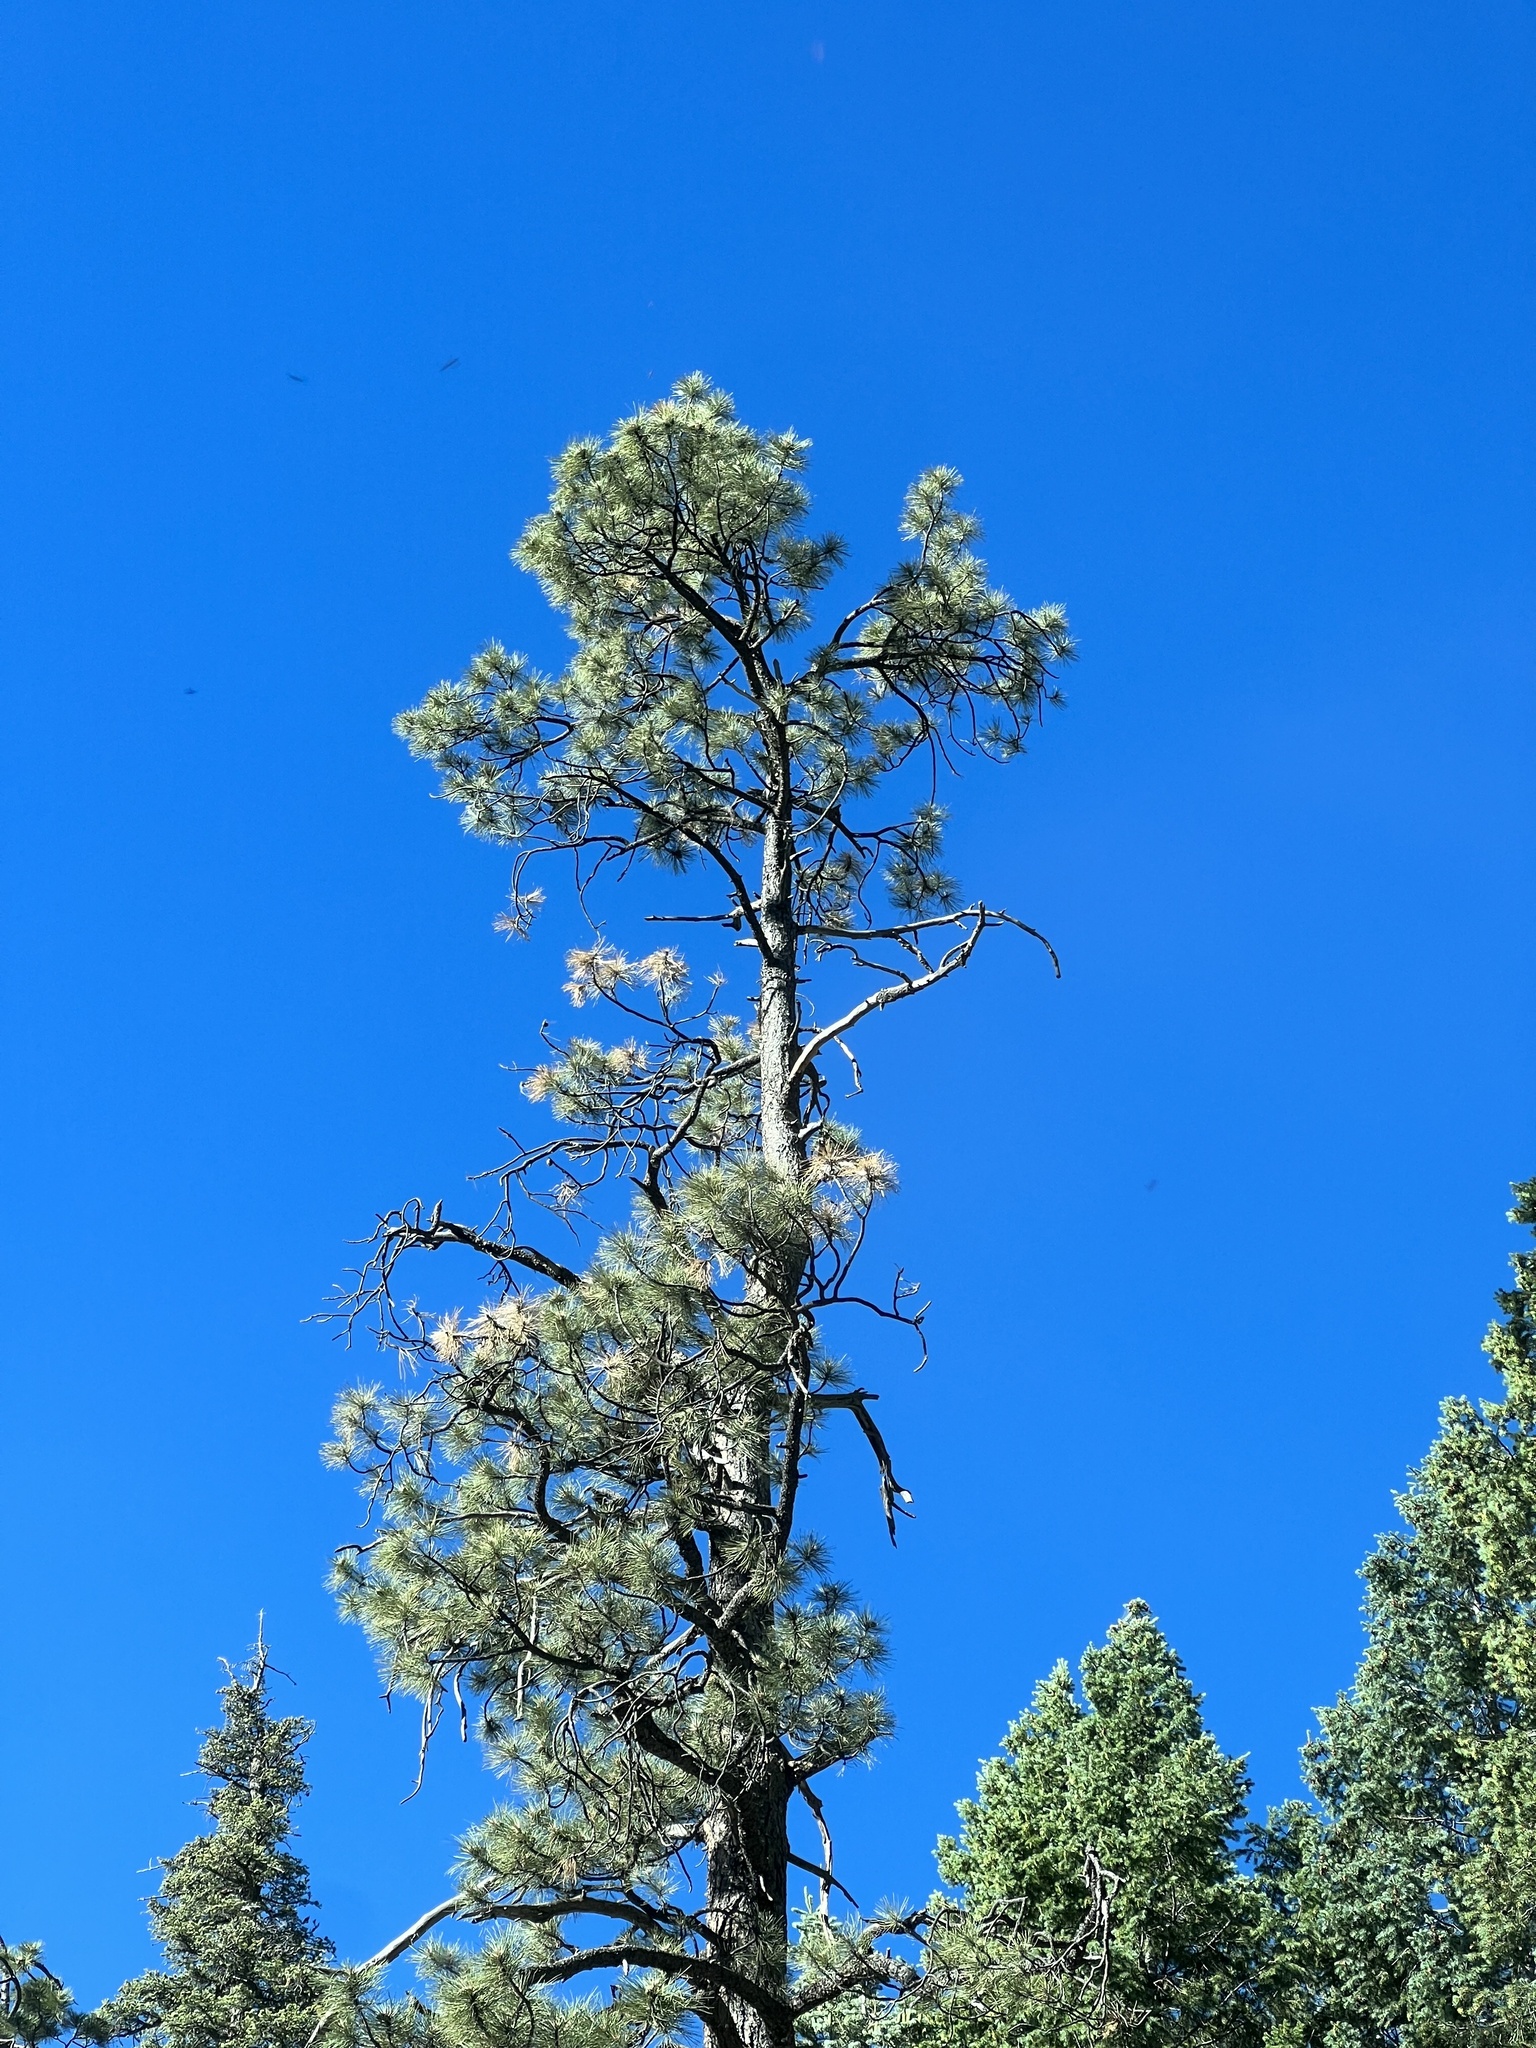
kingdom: Plantae
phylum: Tracheophyta
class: Pinopsida
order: Pinales
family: Pinaceae
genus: Pinus
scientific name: Pinus ponderosa
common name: Western yellow-pine
